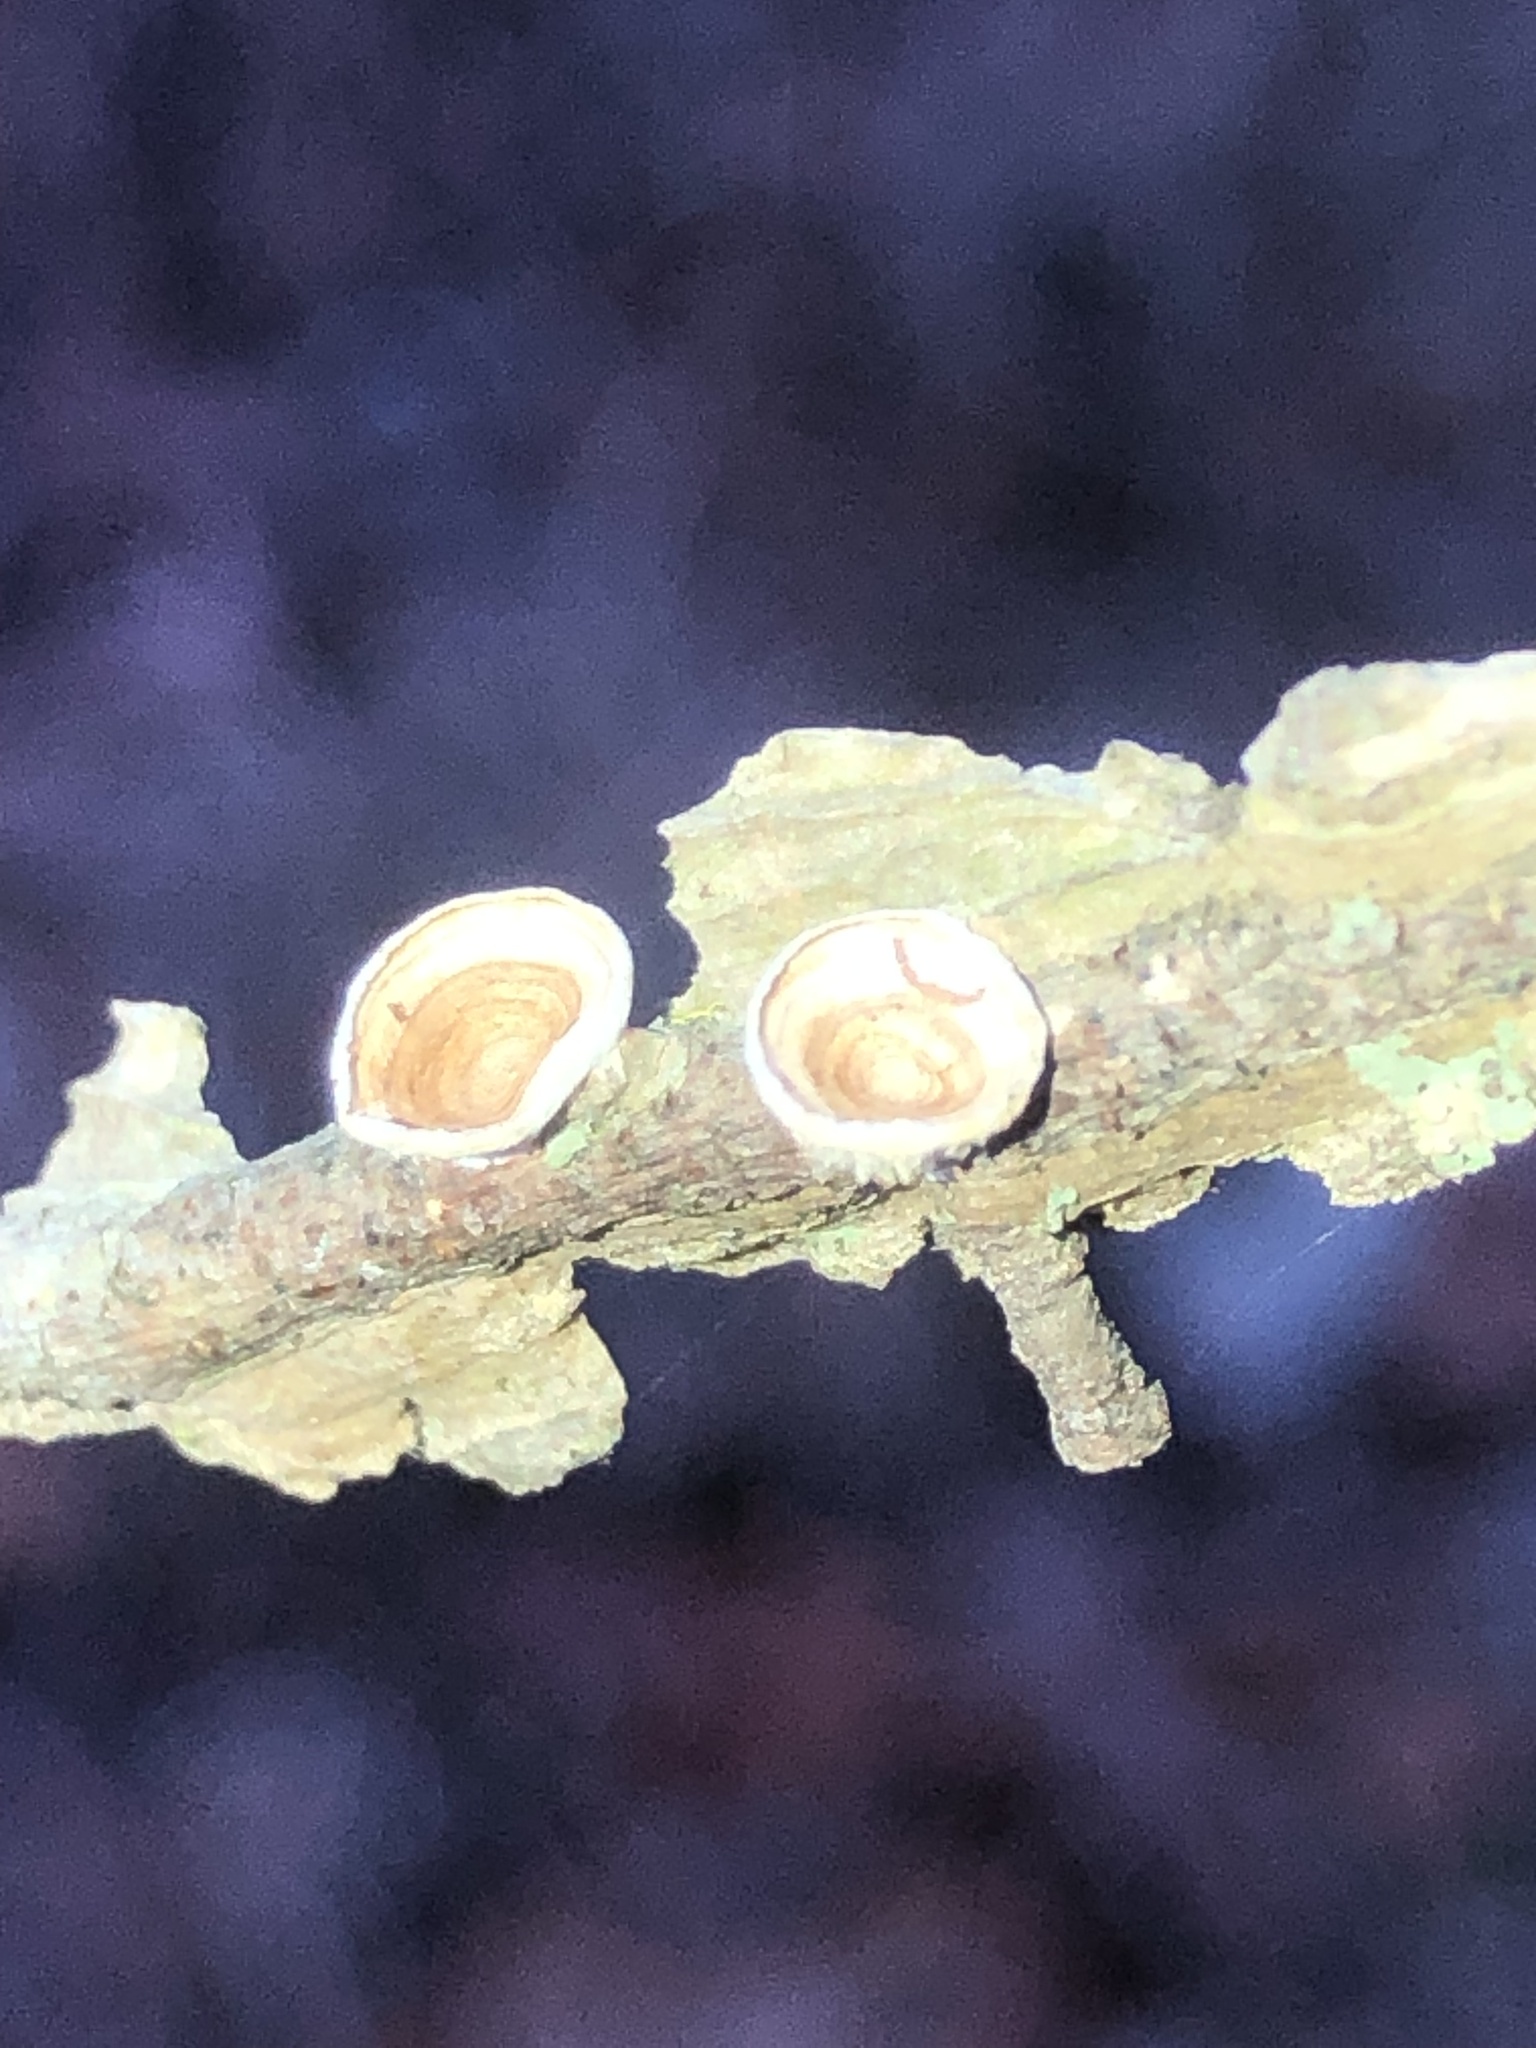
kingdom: Fungi
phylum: Basidiomycota
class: Agaricomycetes
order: Polyporales
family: Polyporaceae
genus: Poronidulus
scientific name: Poronidulus conchifer
